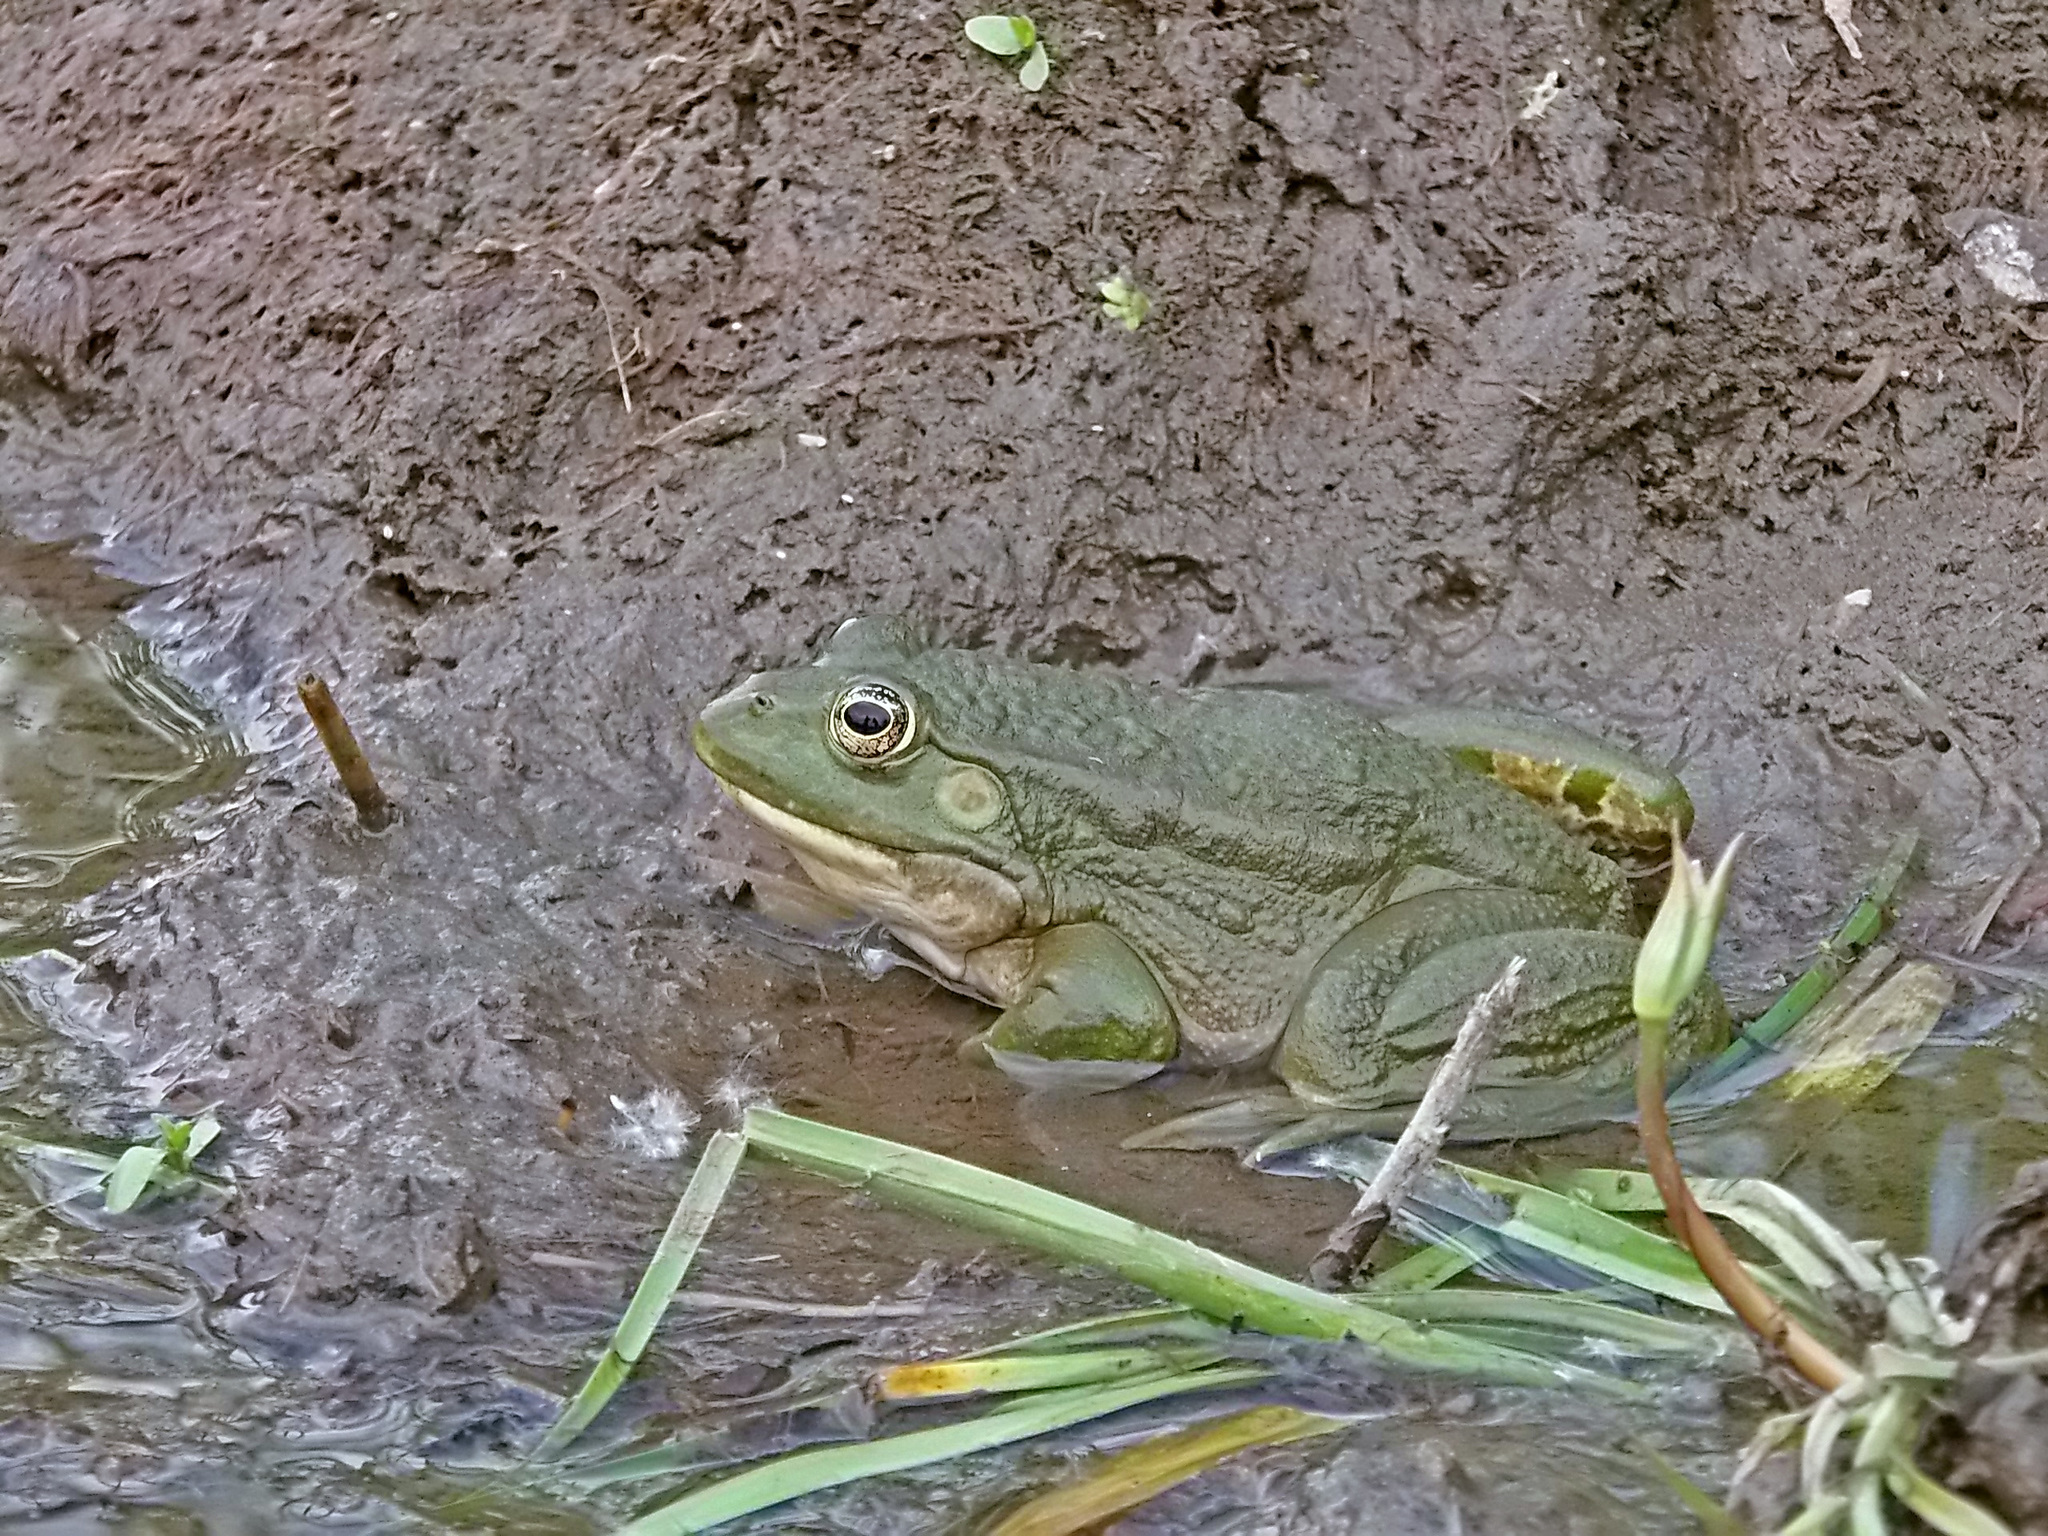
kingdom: Animalia
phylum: Chordata
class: Amphibia
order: Anura
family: Ranidae
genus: Pelophylax
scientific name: Pelophylax ridibundus
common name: Marsh frog
